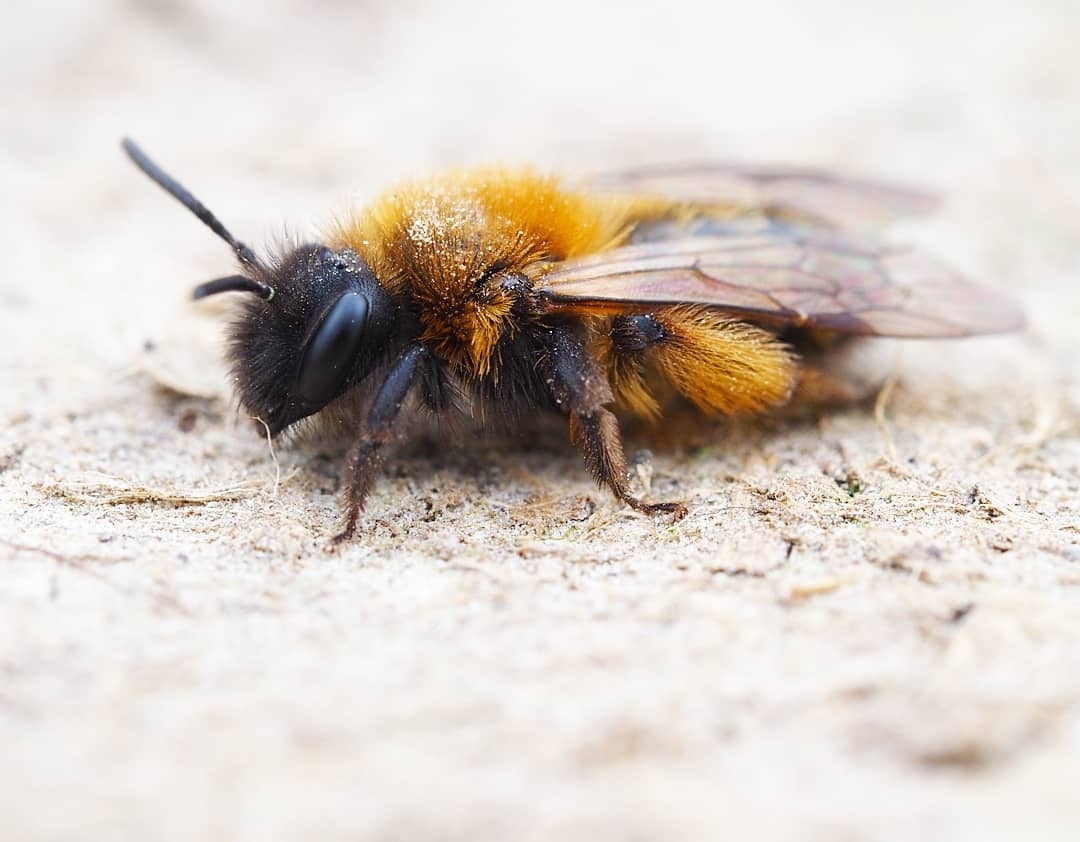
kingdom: Animalia
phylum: Arthropoda
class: Insecta
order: Hymenoptera
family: Andrenidae
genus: Andrena
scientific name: Andrena bicolor
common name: Gwynne's mining bee
